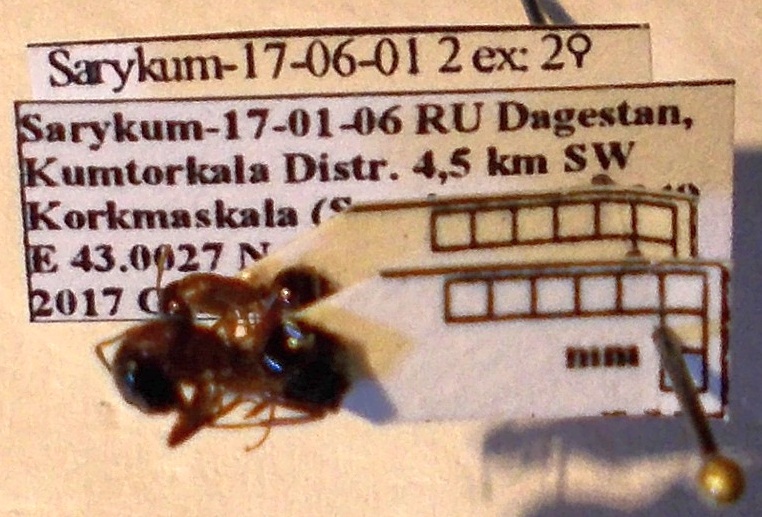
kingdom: Animalia
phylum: Arthropoda
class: Insecta
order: Hymenoptera
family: Formicidae
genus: Camponotus
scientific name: Camponotus fallax
